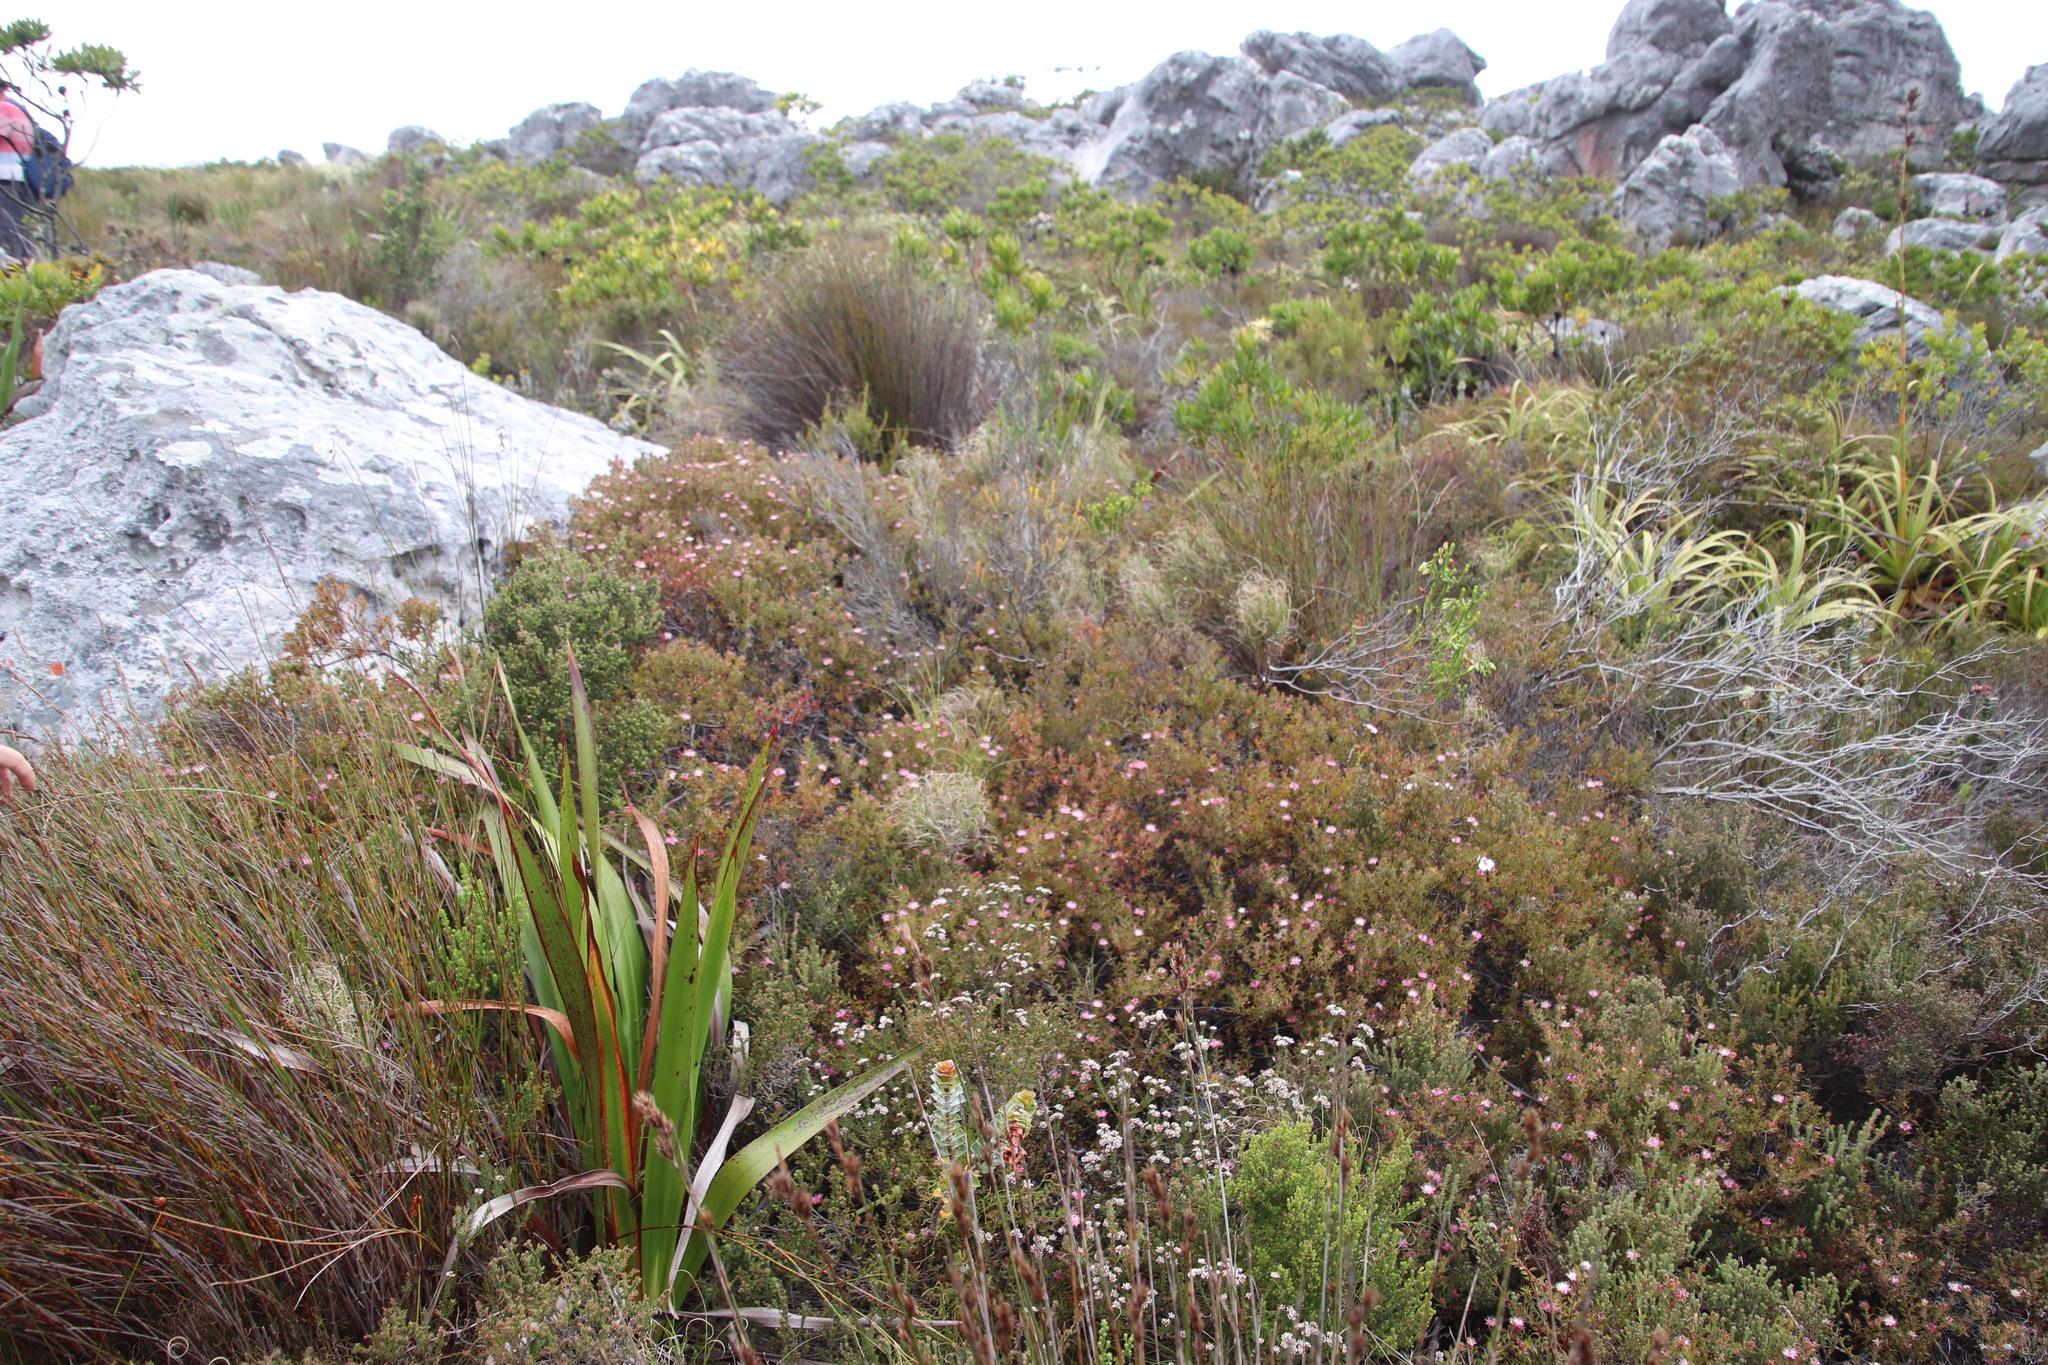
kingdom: Plantae
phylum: Tracheophyta
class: Magnoliopsida
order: Proteales
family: Proteaceae
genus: Diastella
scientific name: Diastella divaricata
